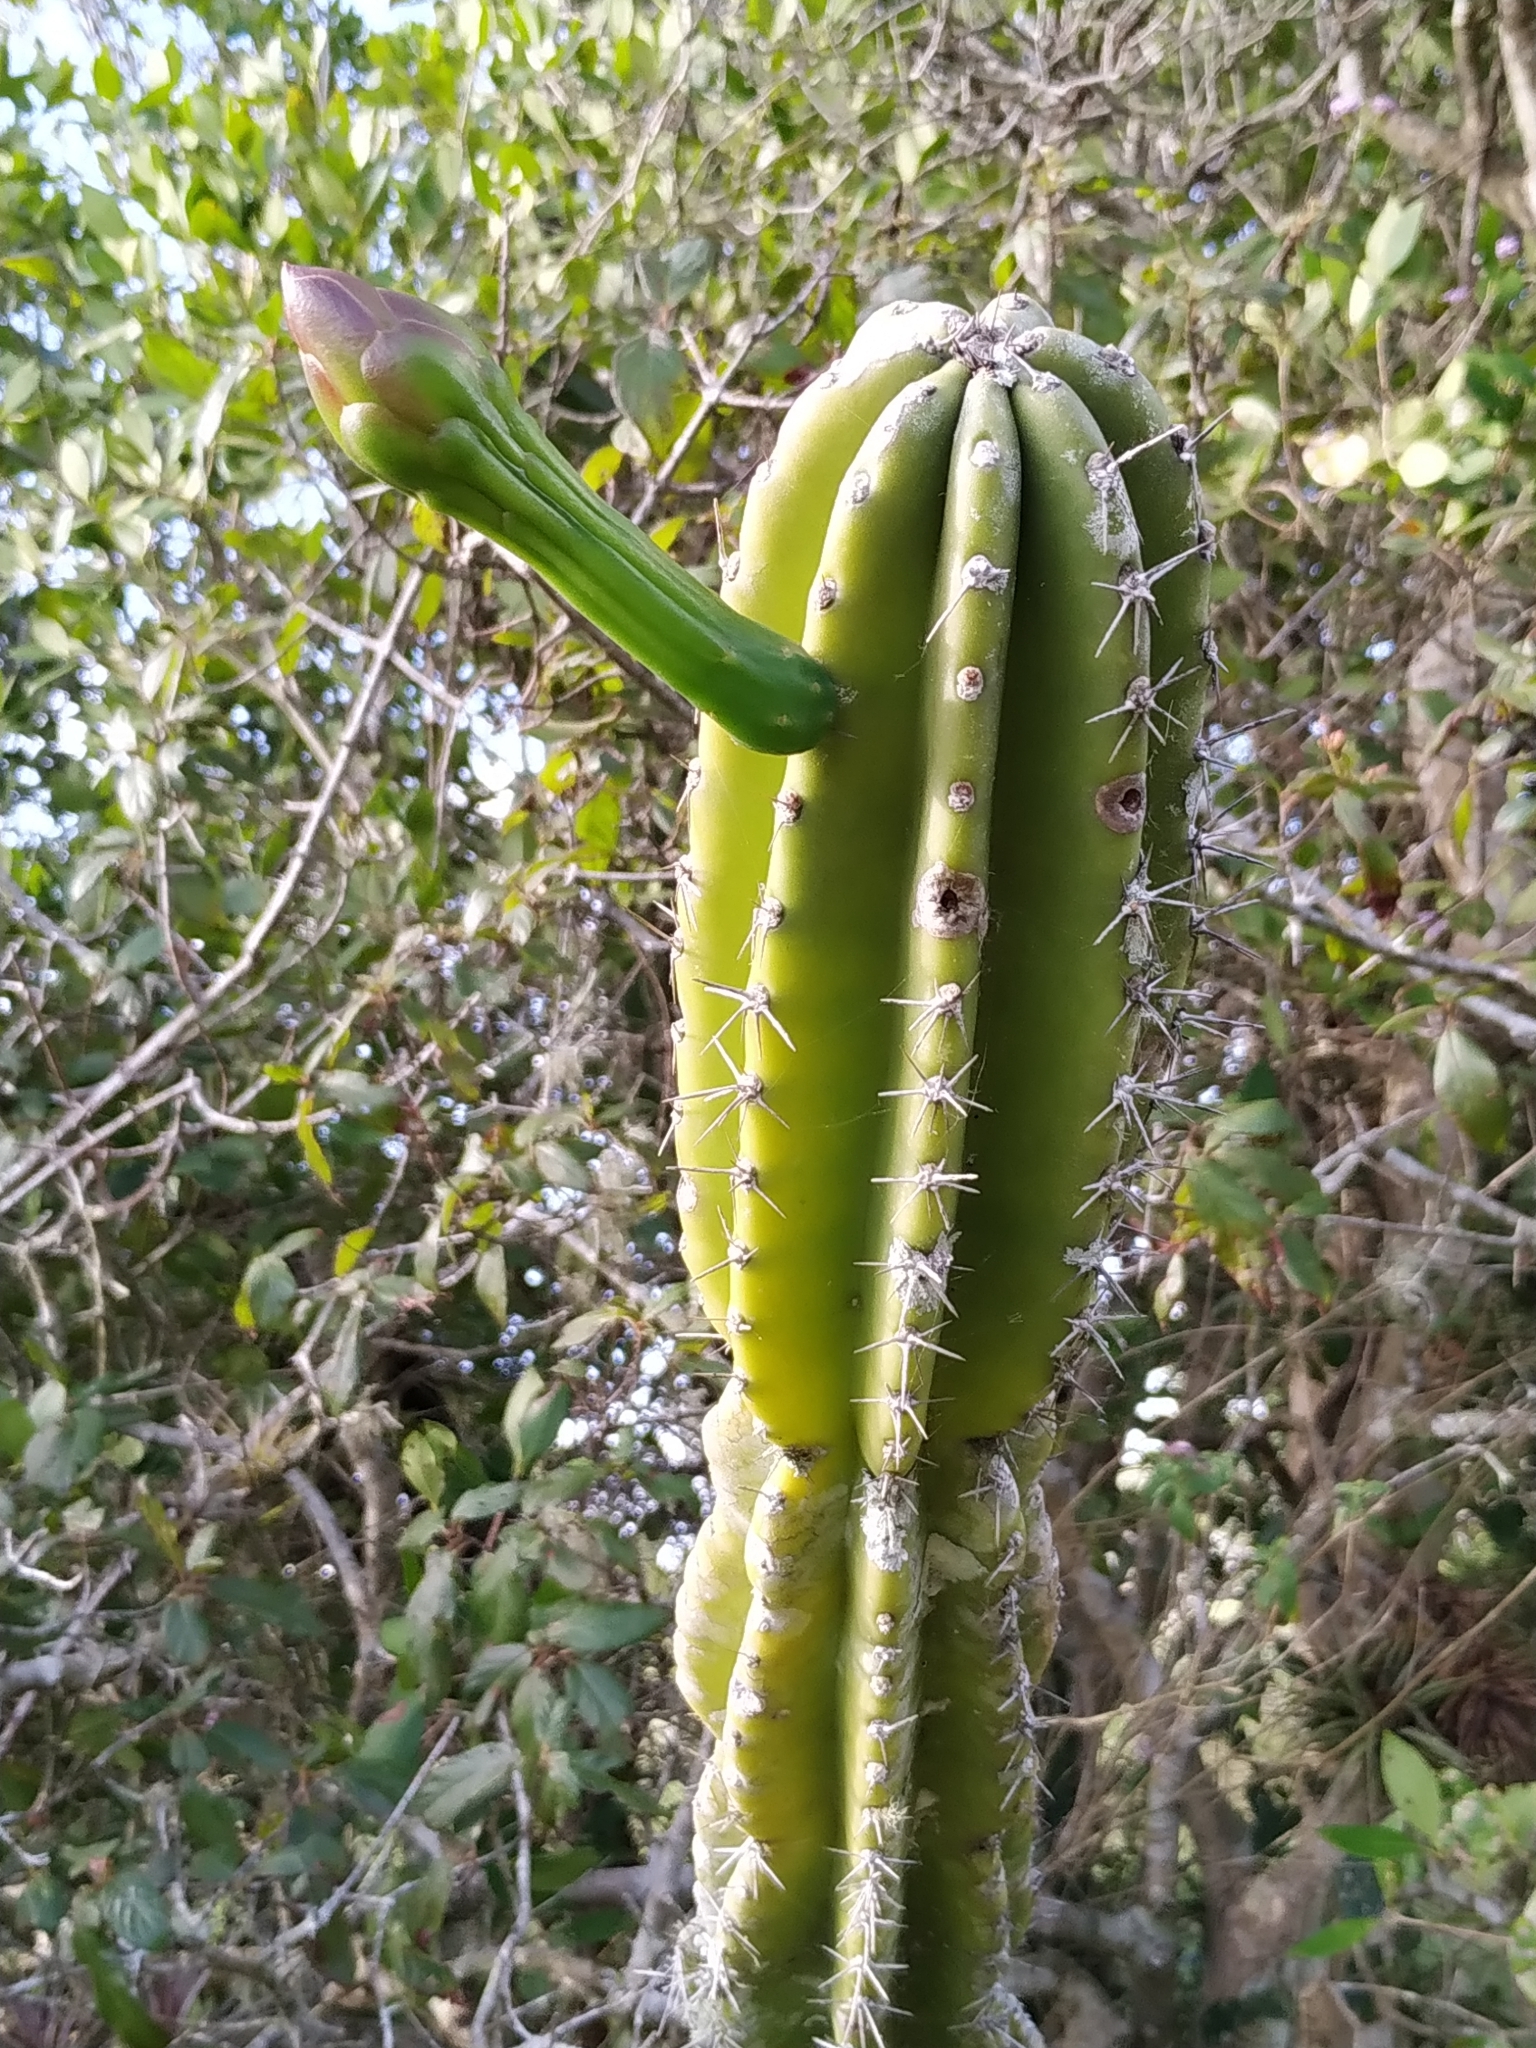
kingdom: Plantae
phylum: Tracheophyta
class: Magnoliopsida
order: Caryophyllales
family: Cactaceae
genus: Cereus
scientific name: Cereus hildmannianus
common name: Hedge cactus
